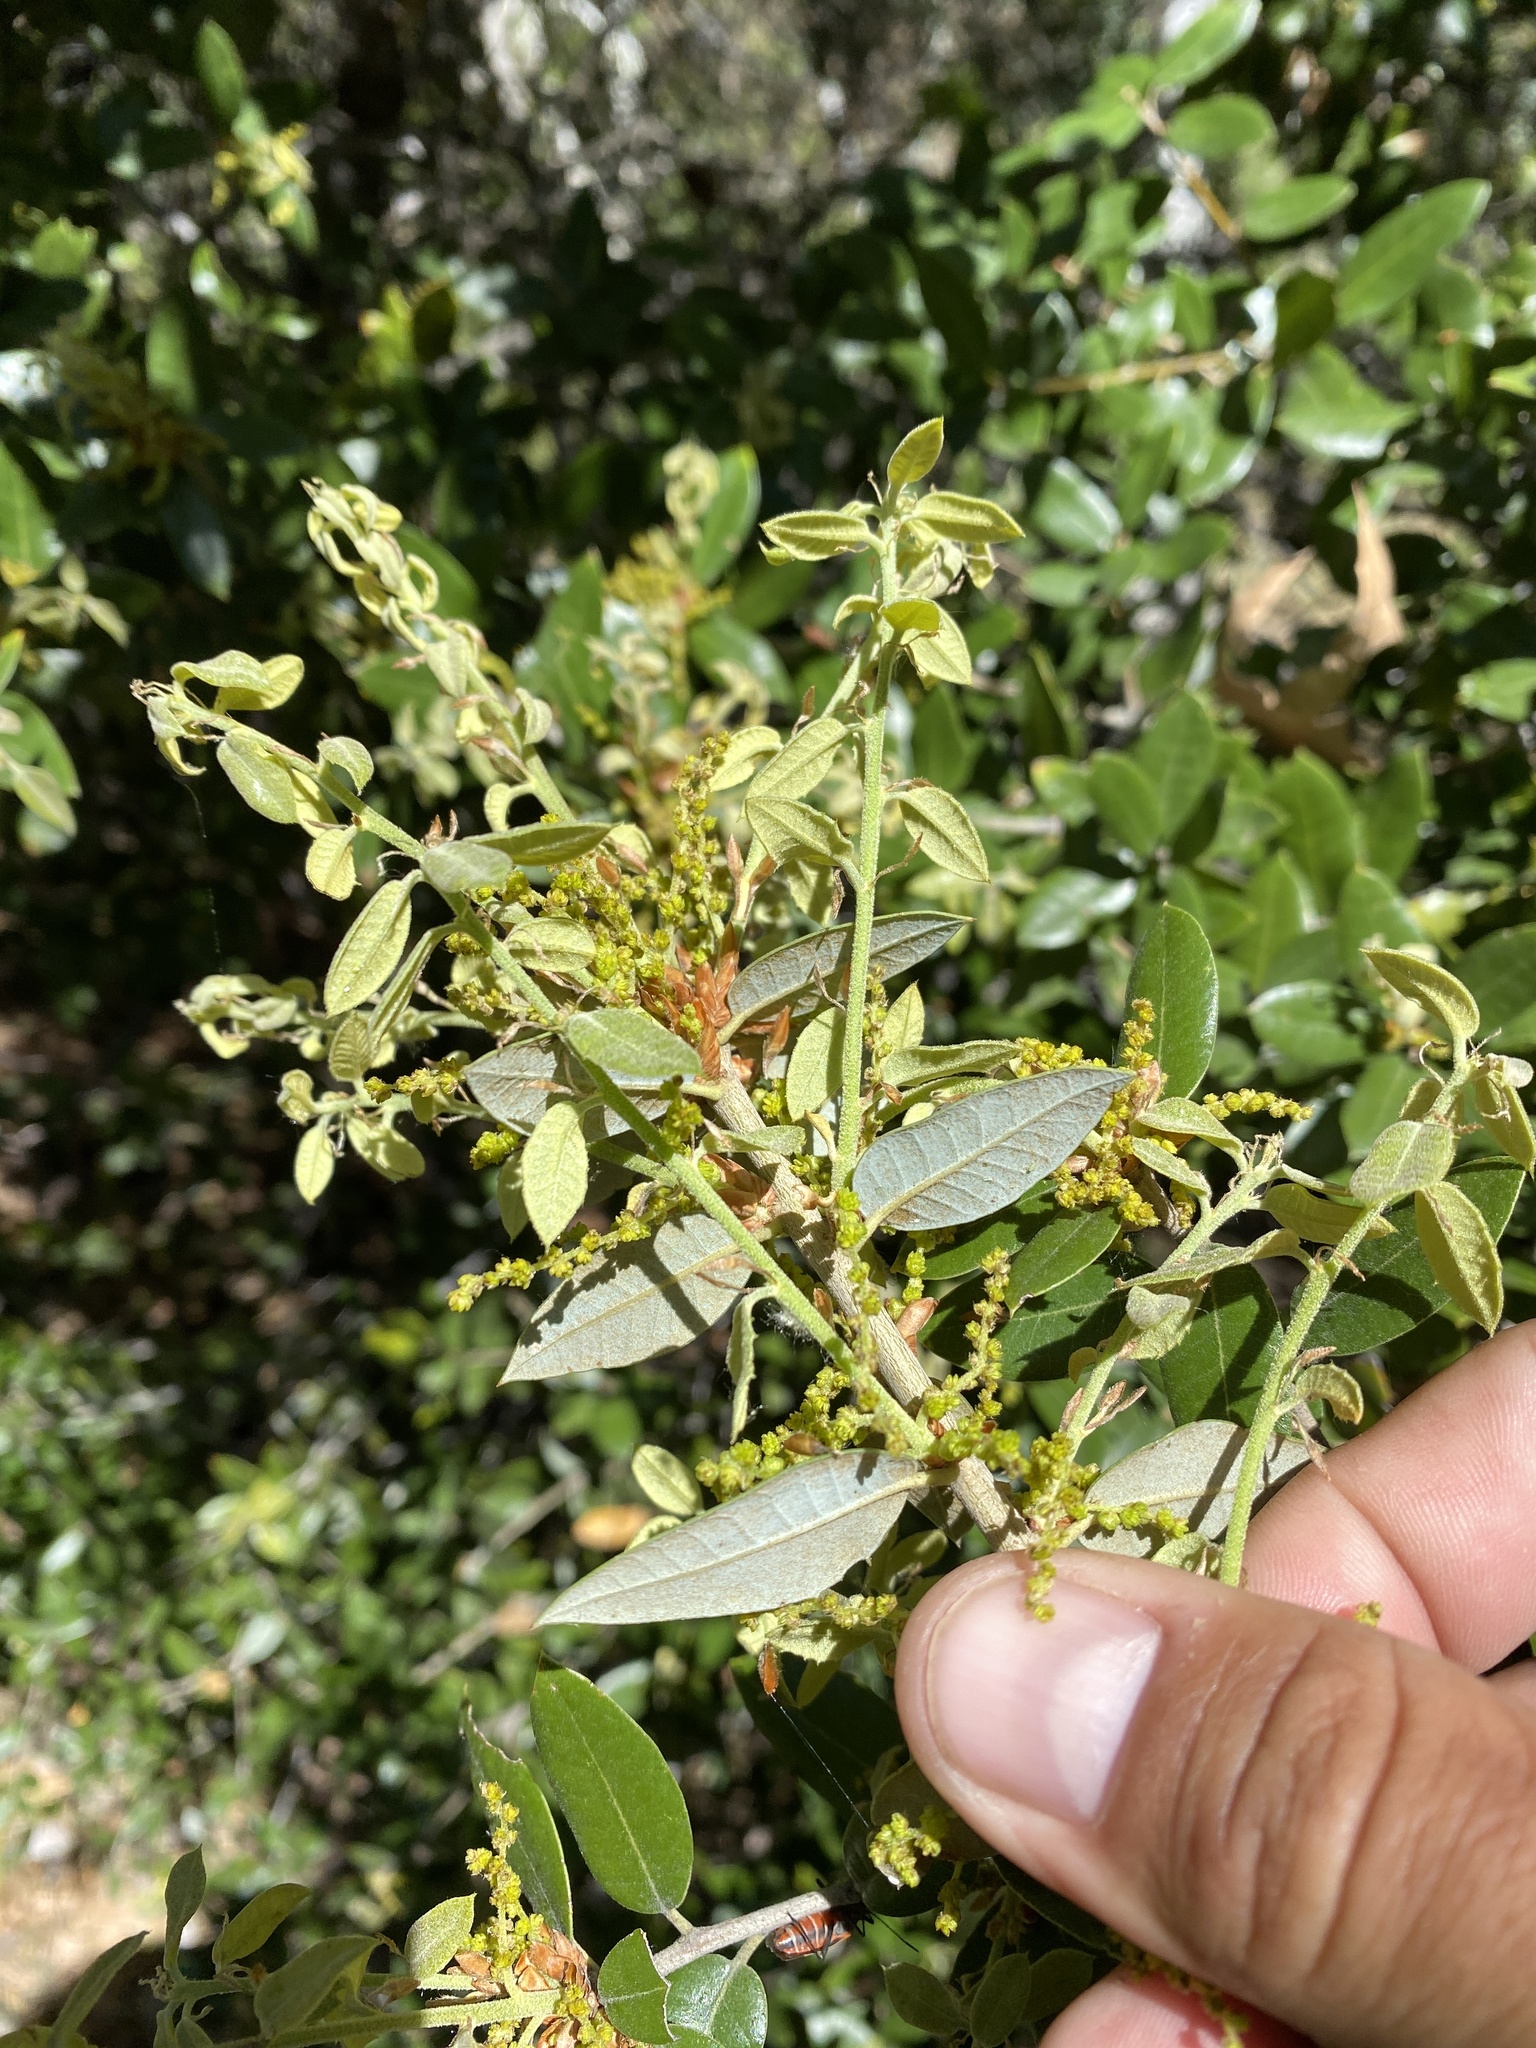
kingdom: Plantae
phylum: Tracheophyta
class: Magnoliopsida
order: Fagales
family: Fagaceae
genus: Quercus
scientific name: Quercus chrysolepis
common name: Canyon live oak
